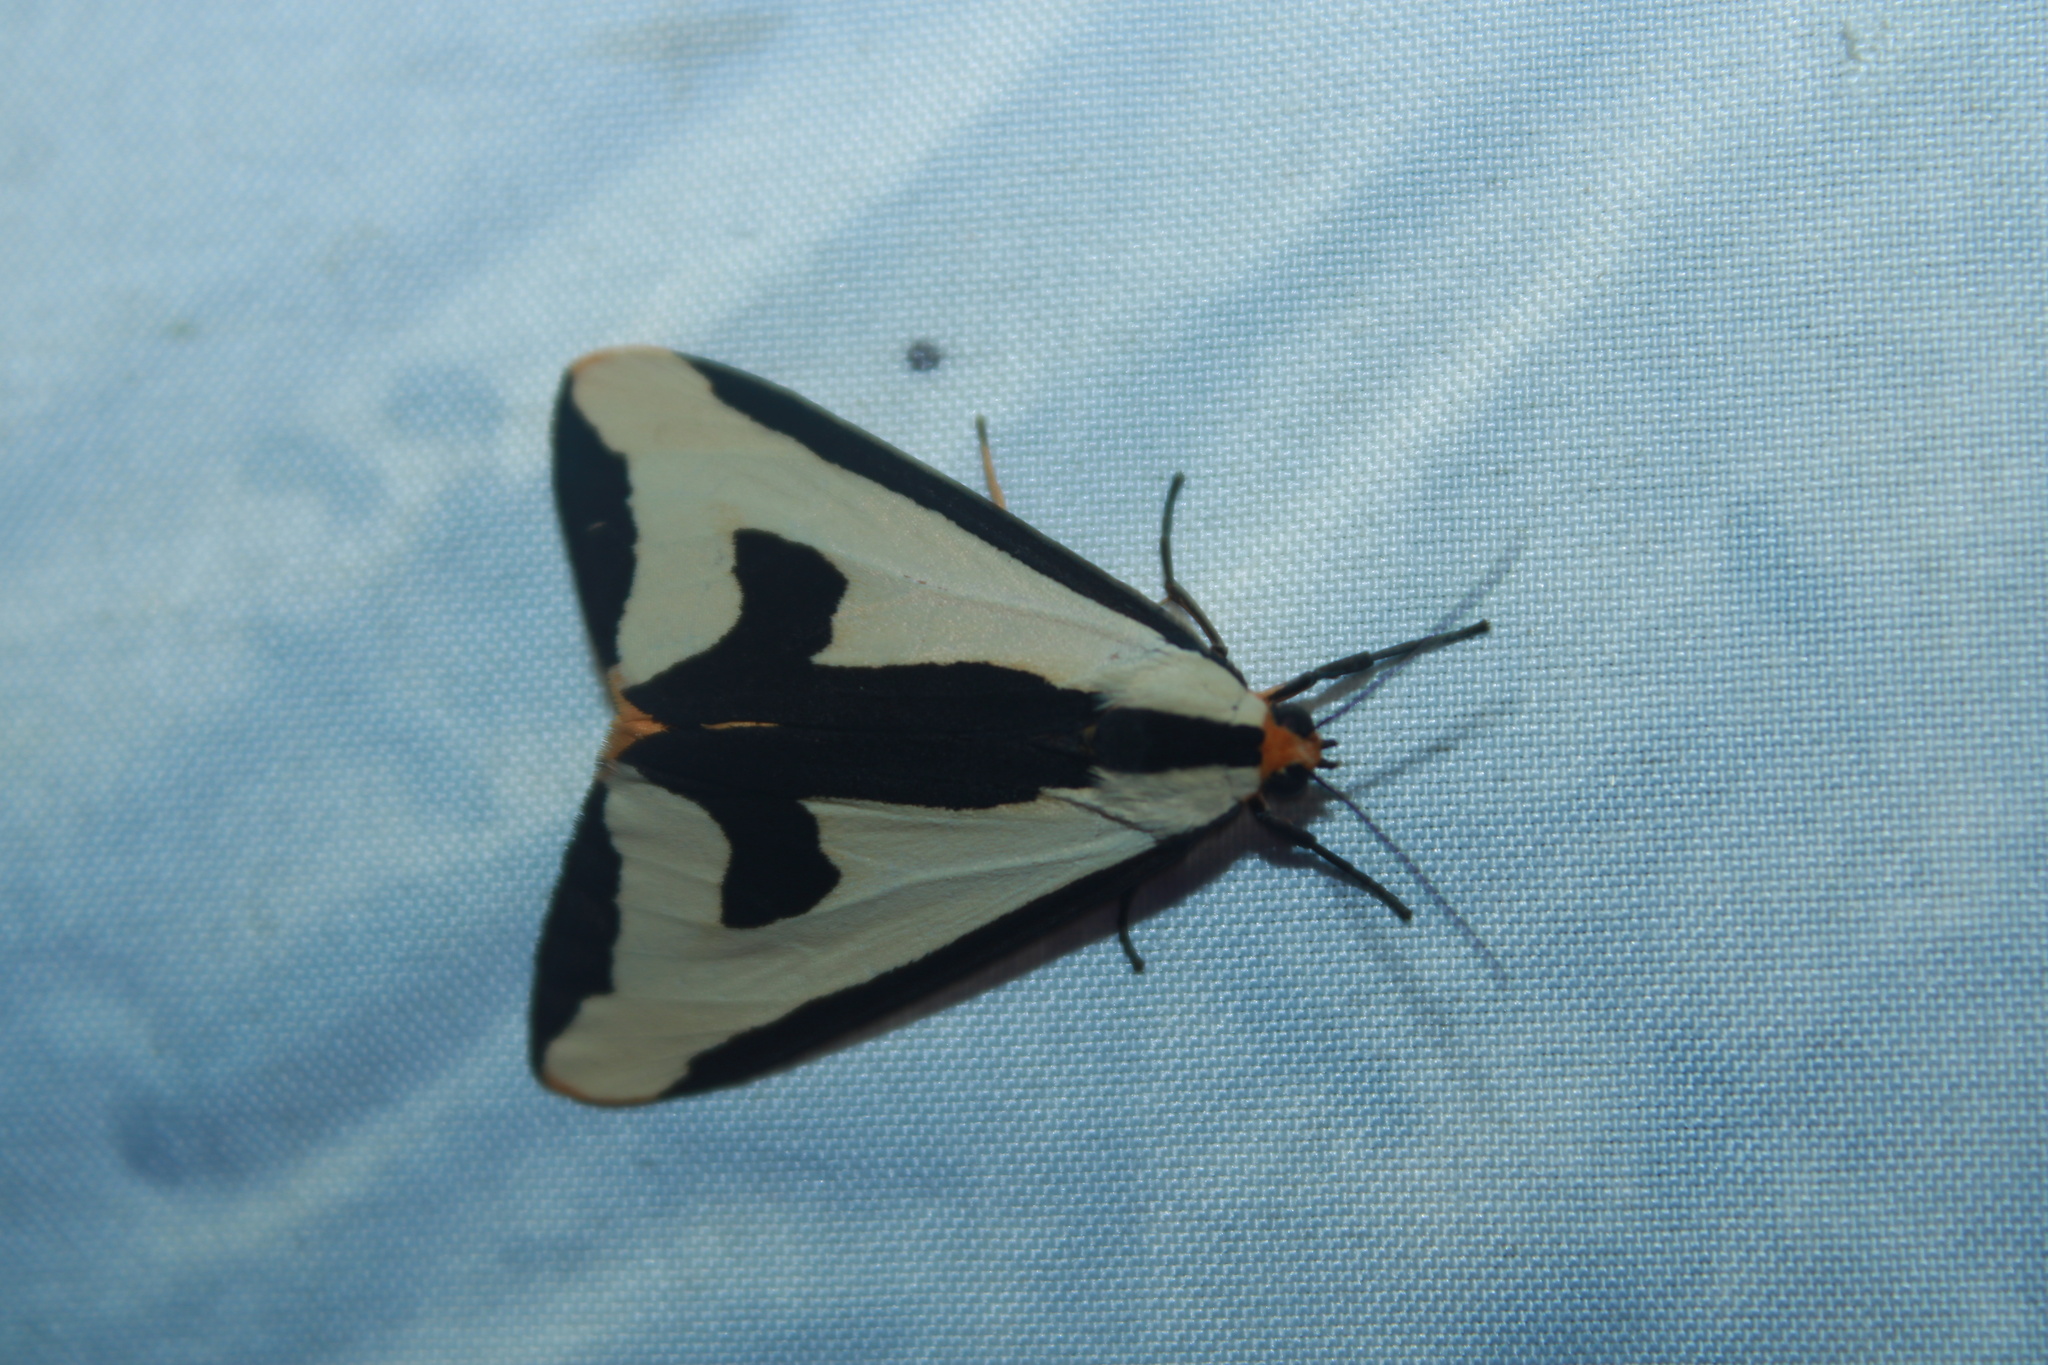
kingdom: Animalia
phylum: Arthropoda
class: Insecta
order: Lepidoptera
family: Erebidae
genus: Haploa
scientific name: Haploa clymene
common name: Clymene moth
